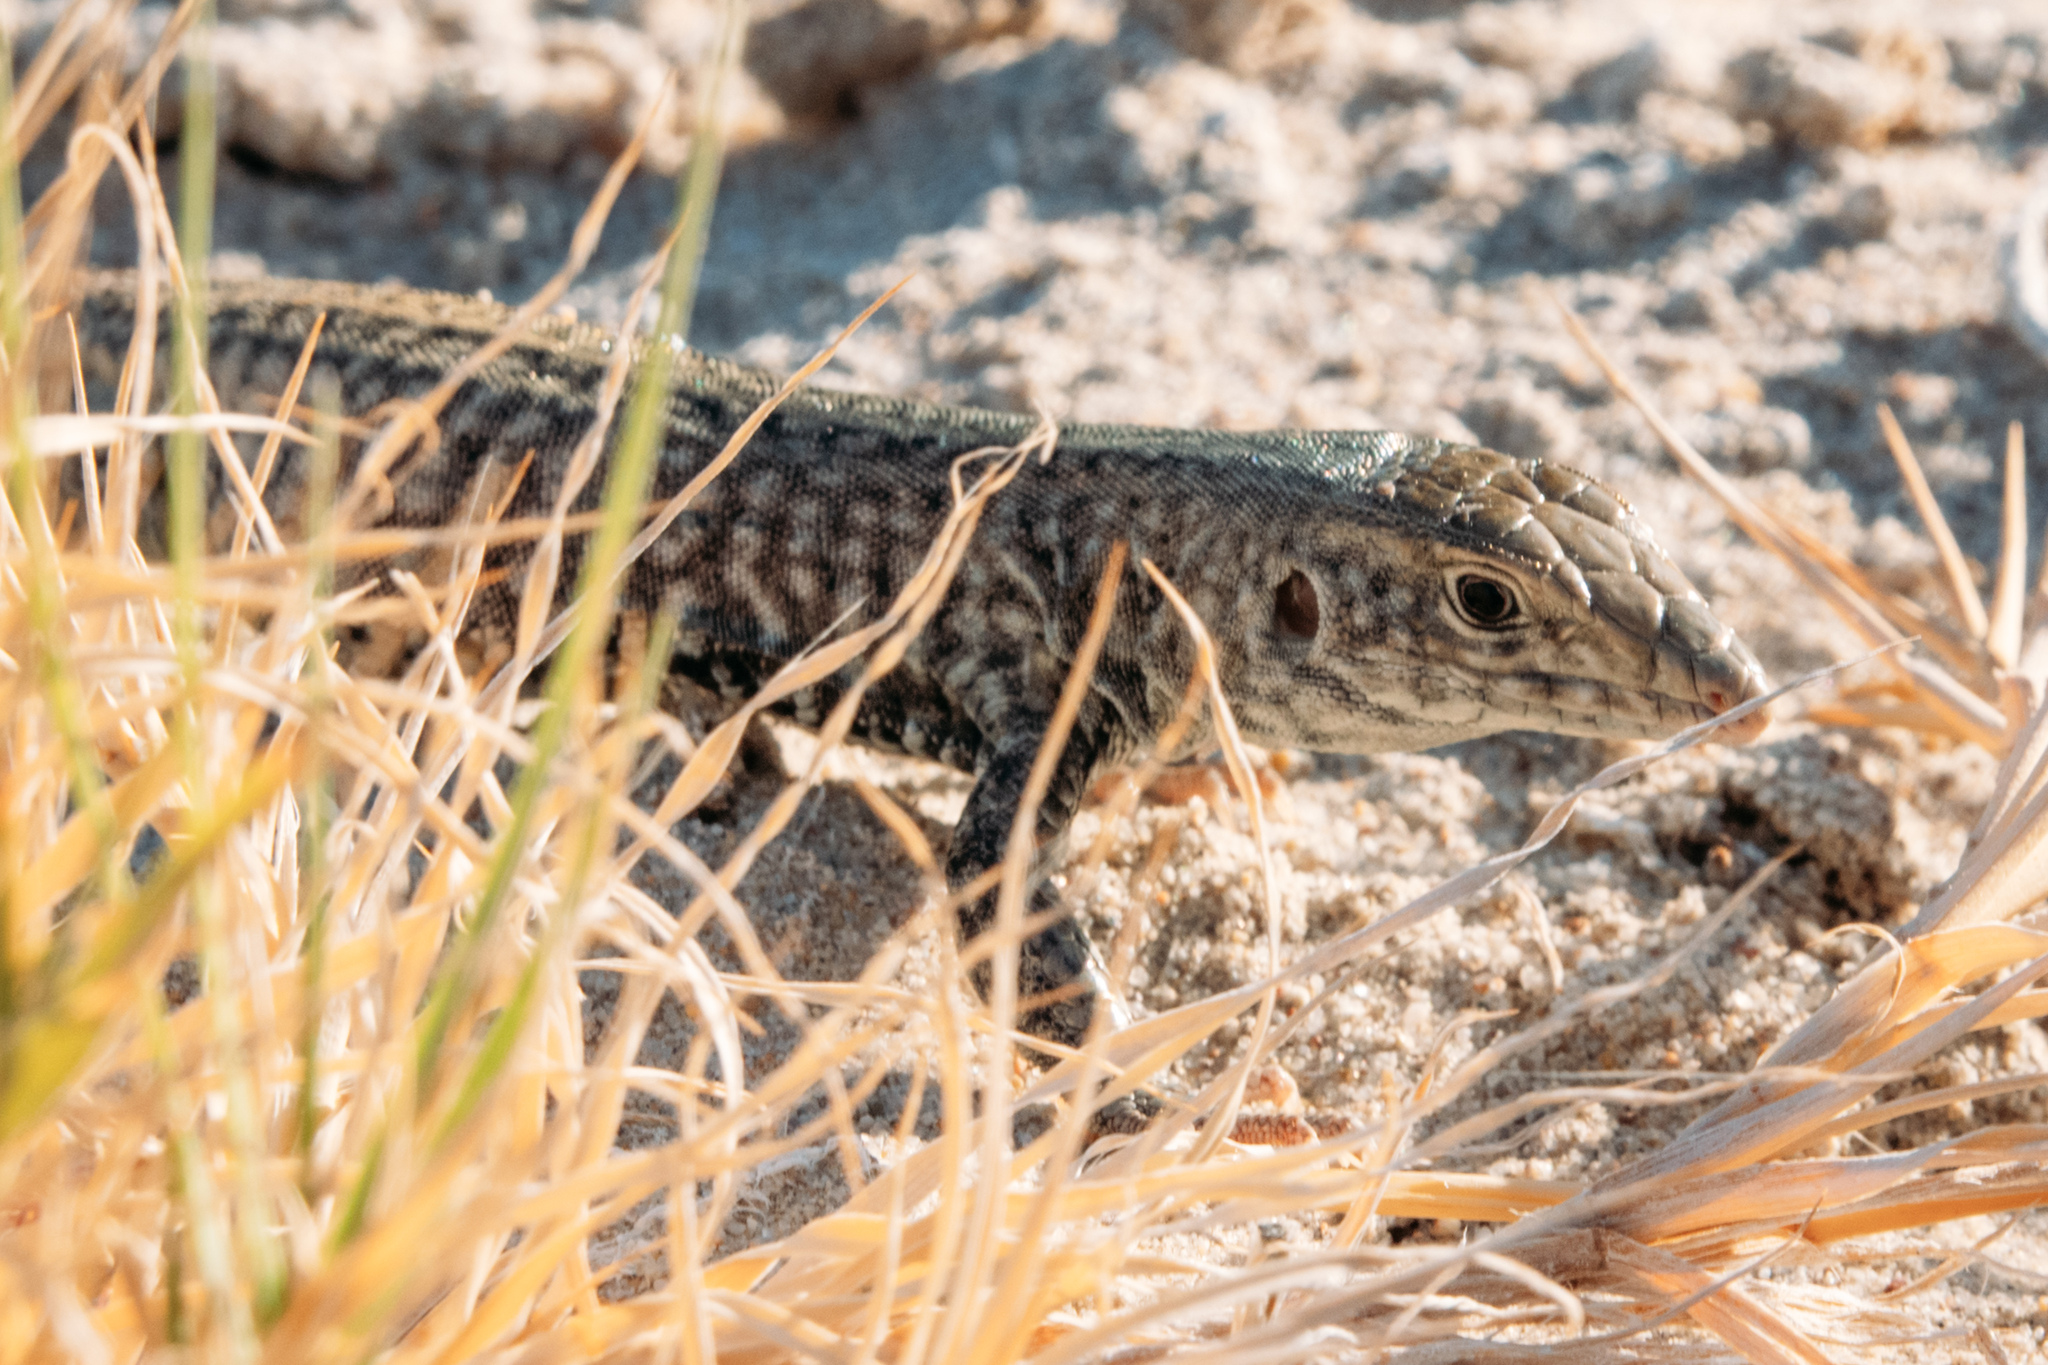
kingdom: Animalia
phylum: Chordata
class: Squamata
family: Teiidae
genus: Aspidoscelis
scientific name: Aspidoscelis tigris
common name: Tiger whiptail
